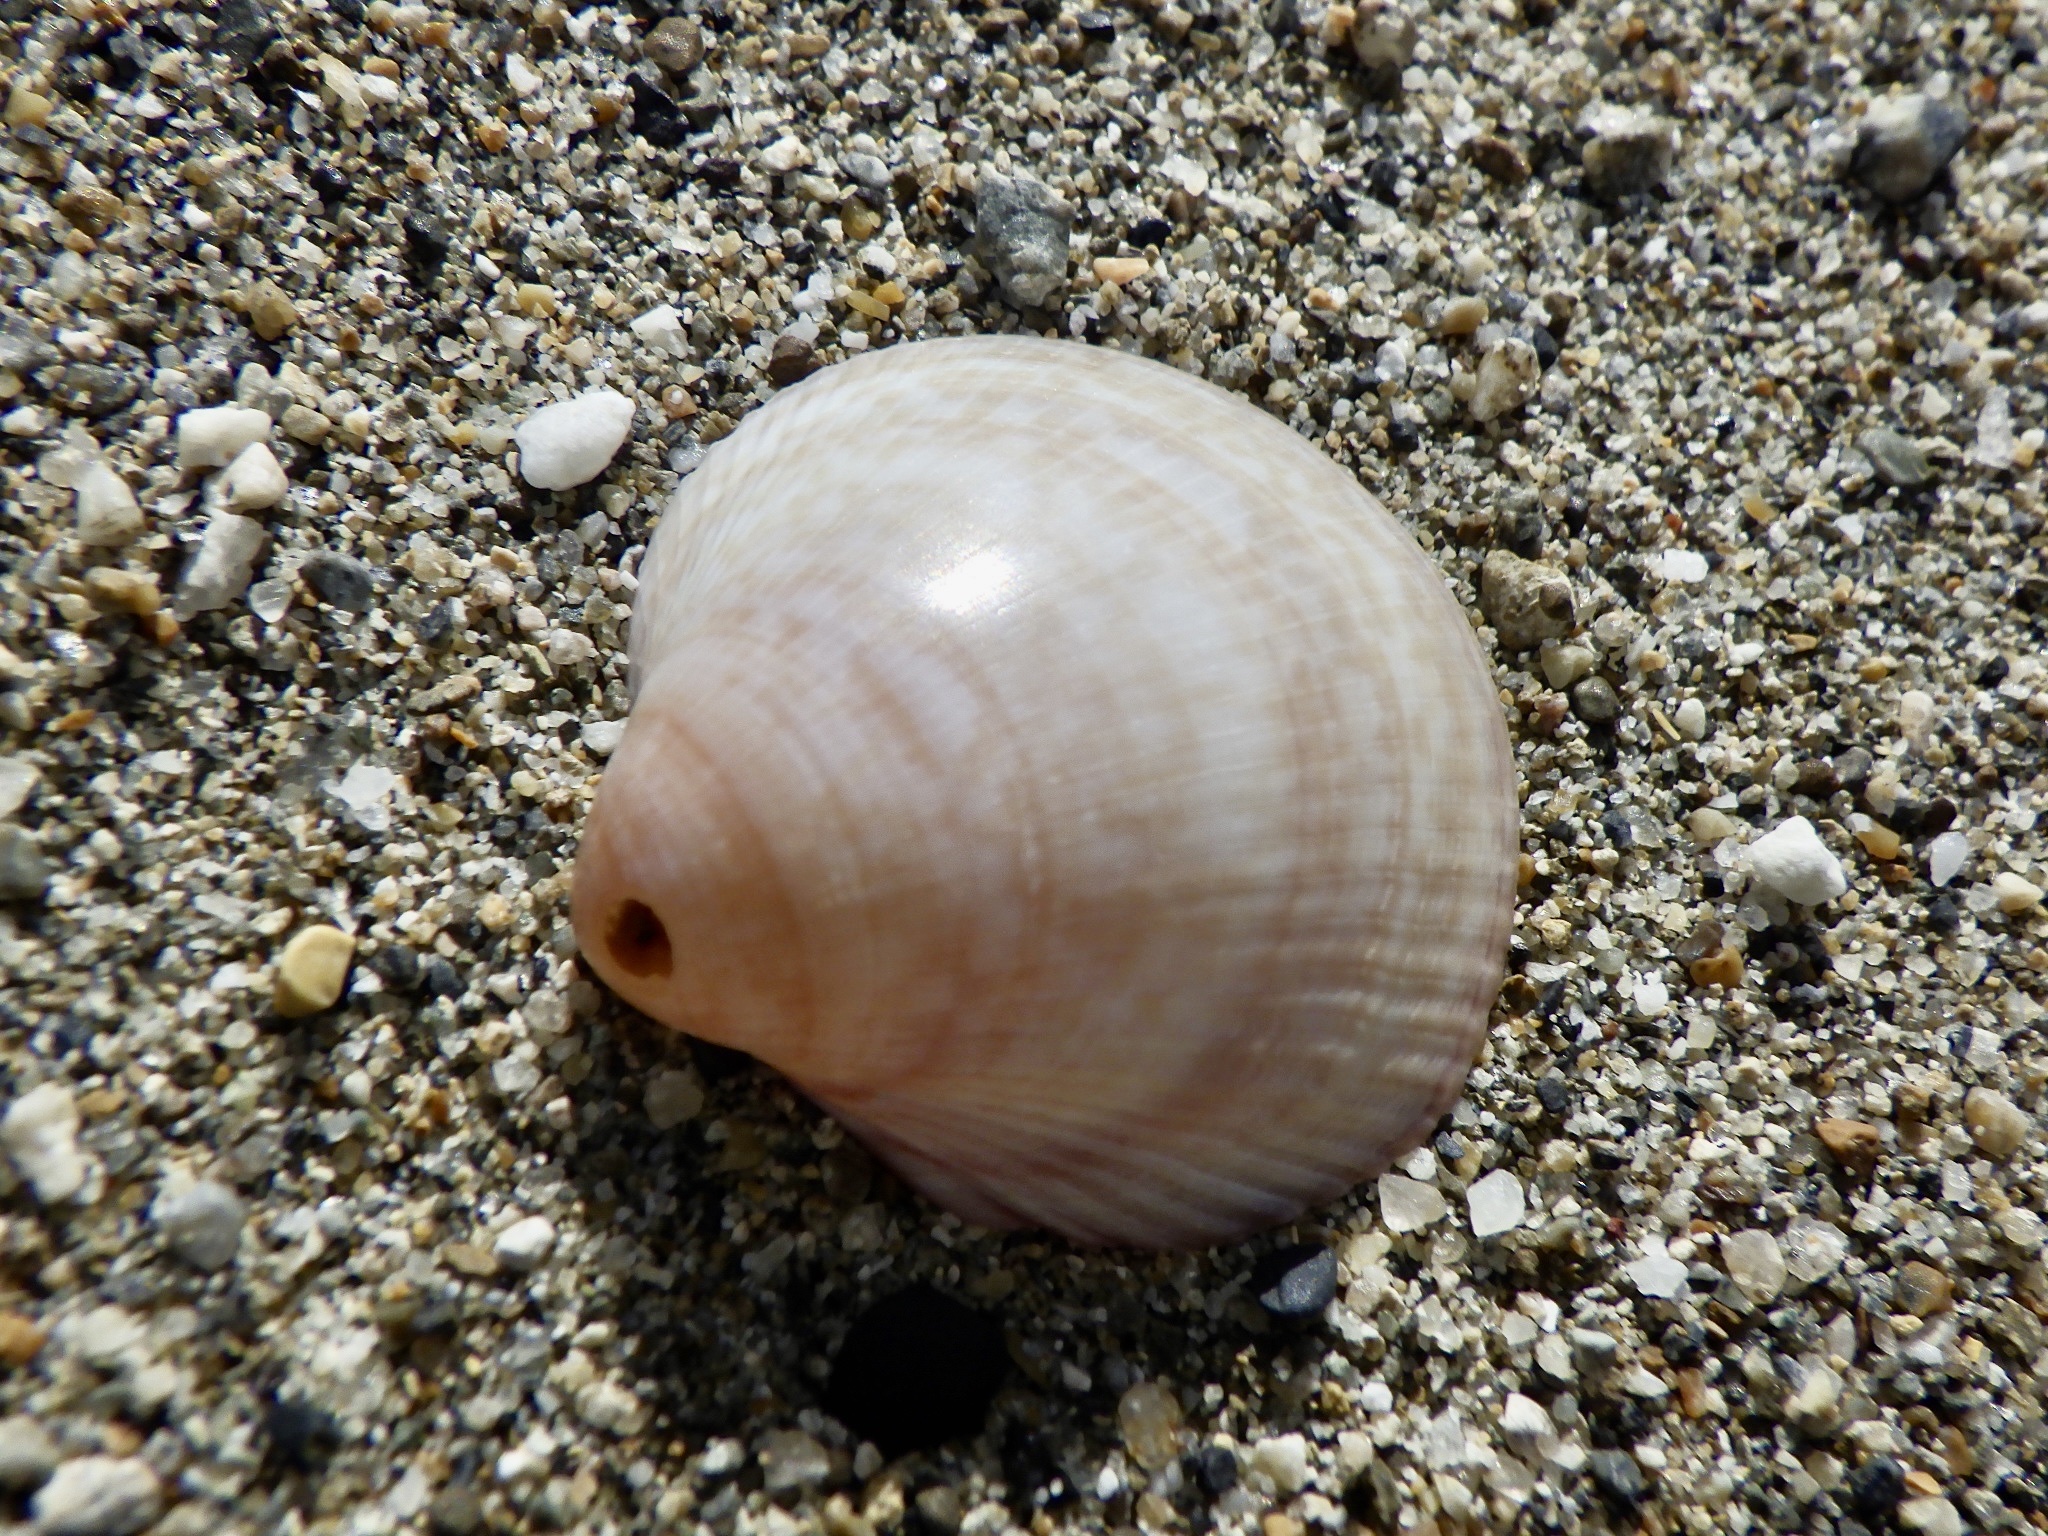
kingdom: Animalia
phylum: Mollusca
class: Bivalvia
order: Cardiida
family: Cardiidae
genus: Fulvia
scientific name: Fulvia mutica
